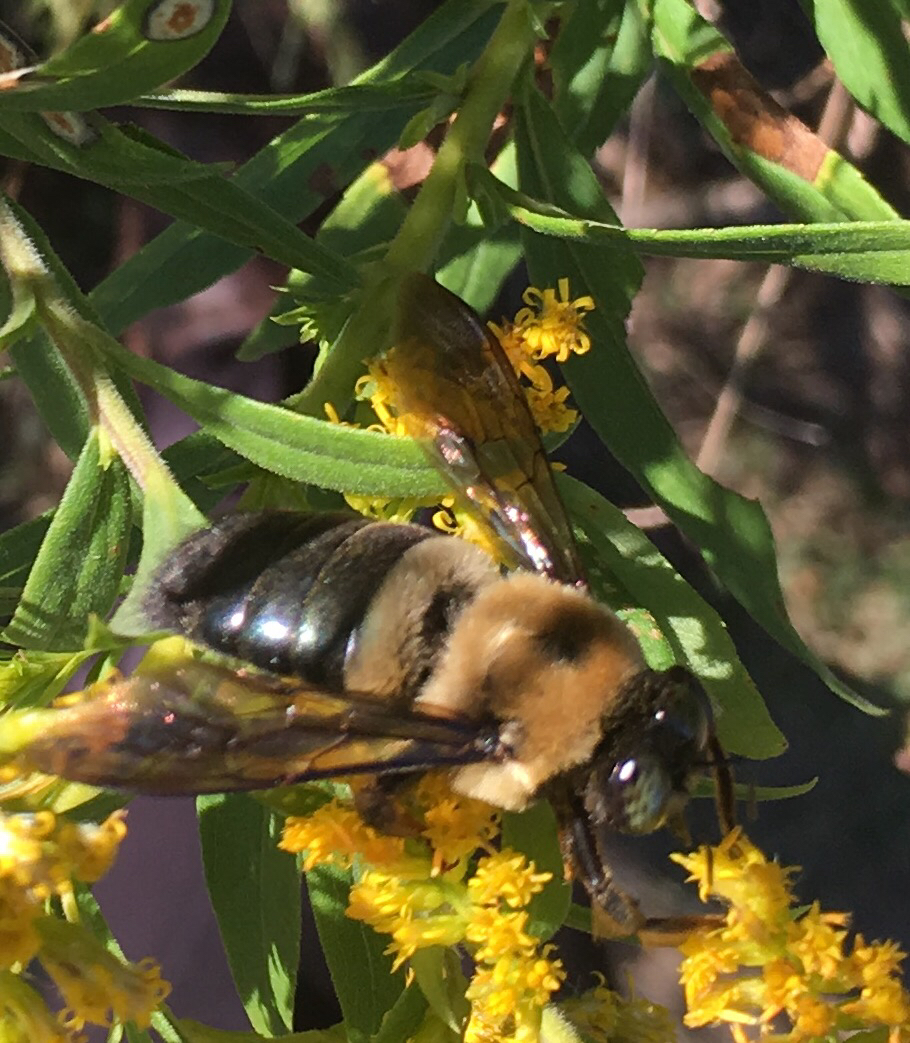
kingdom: Animalia
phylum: Arthropoda
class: Insecta
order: Hymenoptera
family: Apidae
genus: Xylocopa
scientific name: Xylocopa virginica
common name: Carpenter bee
